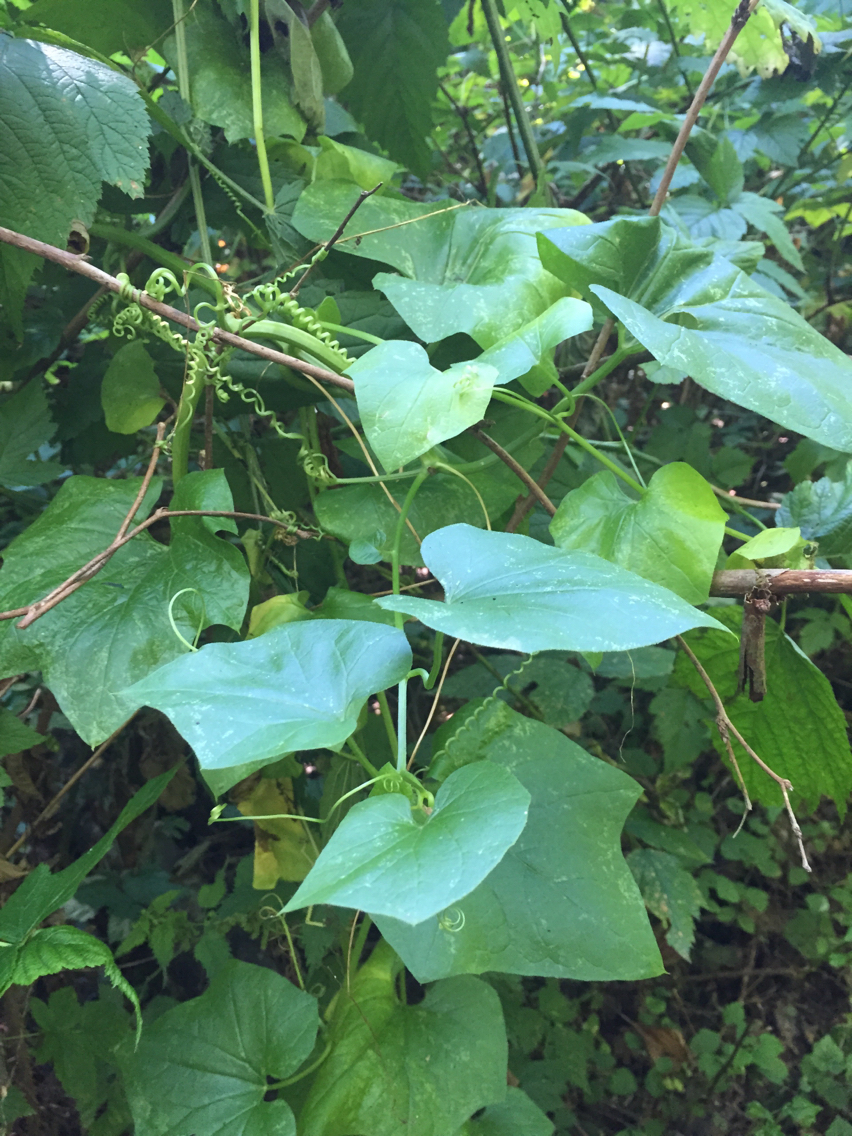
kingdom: Plantae
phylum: Tracheophyta
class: Magnoliopsida
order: Cucurbitales
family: Cucurbitaceae
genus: Marah
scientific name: Marah oregana
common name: Coastal manroot
